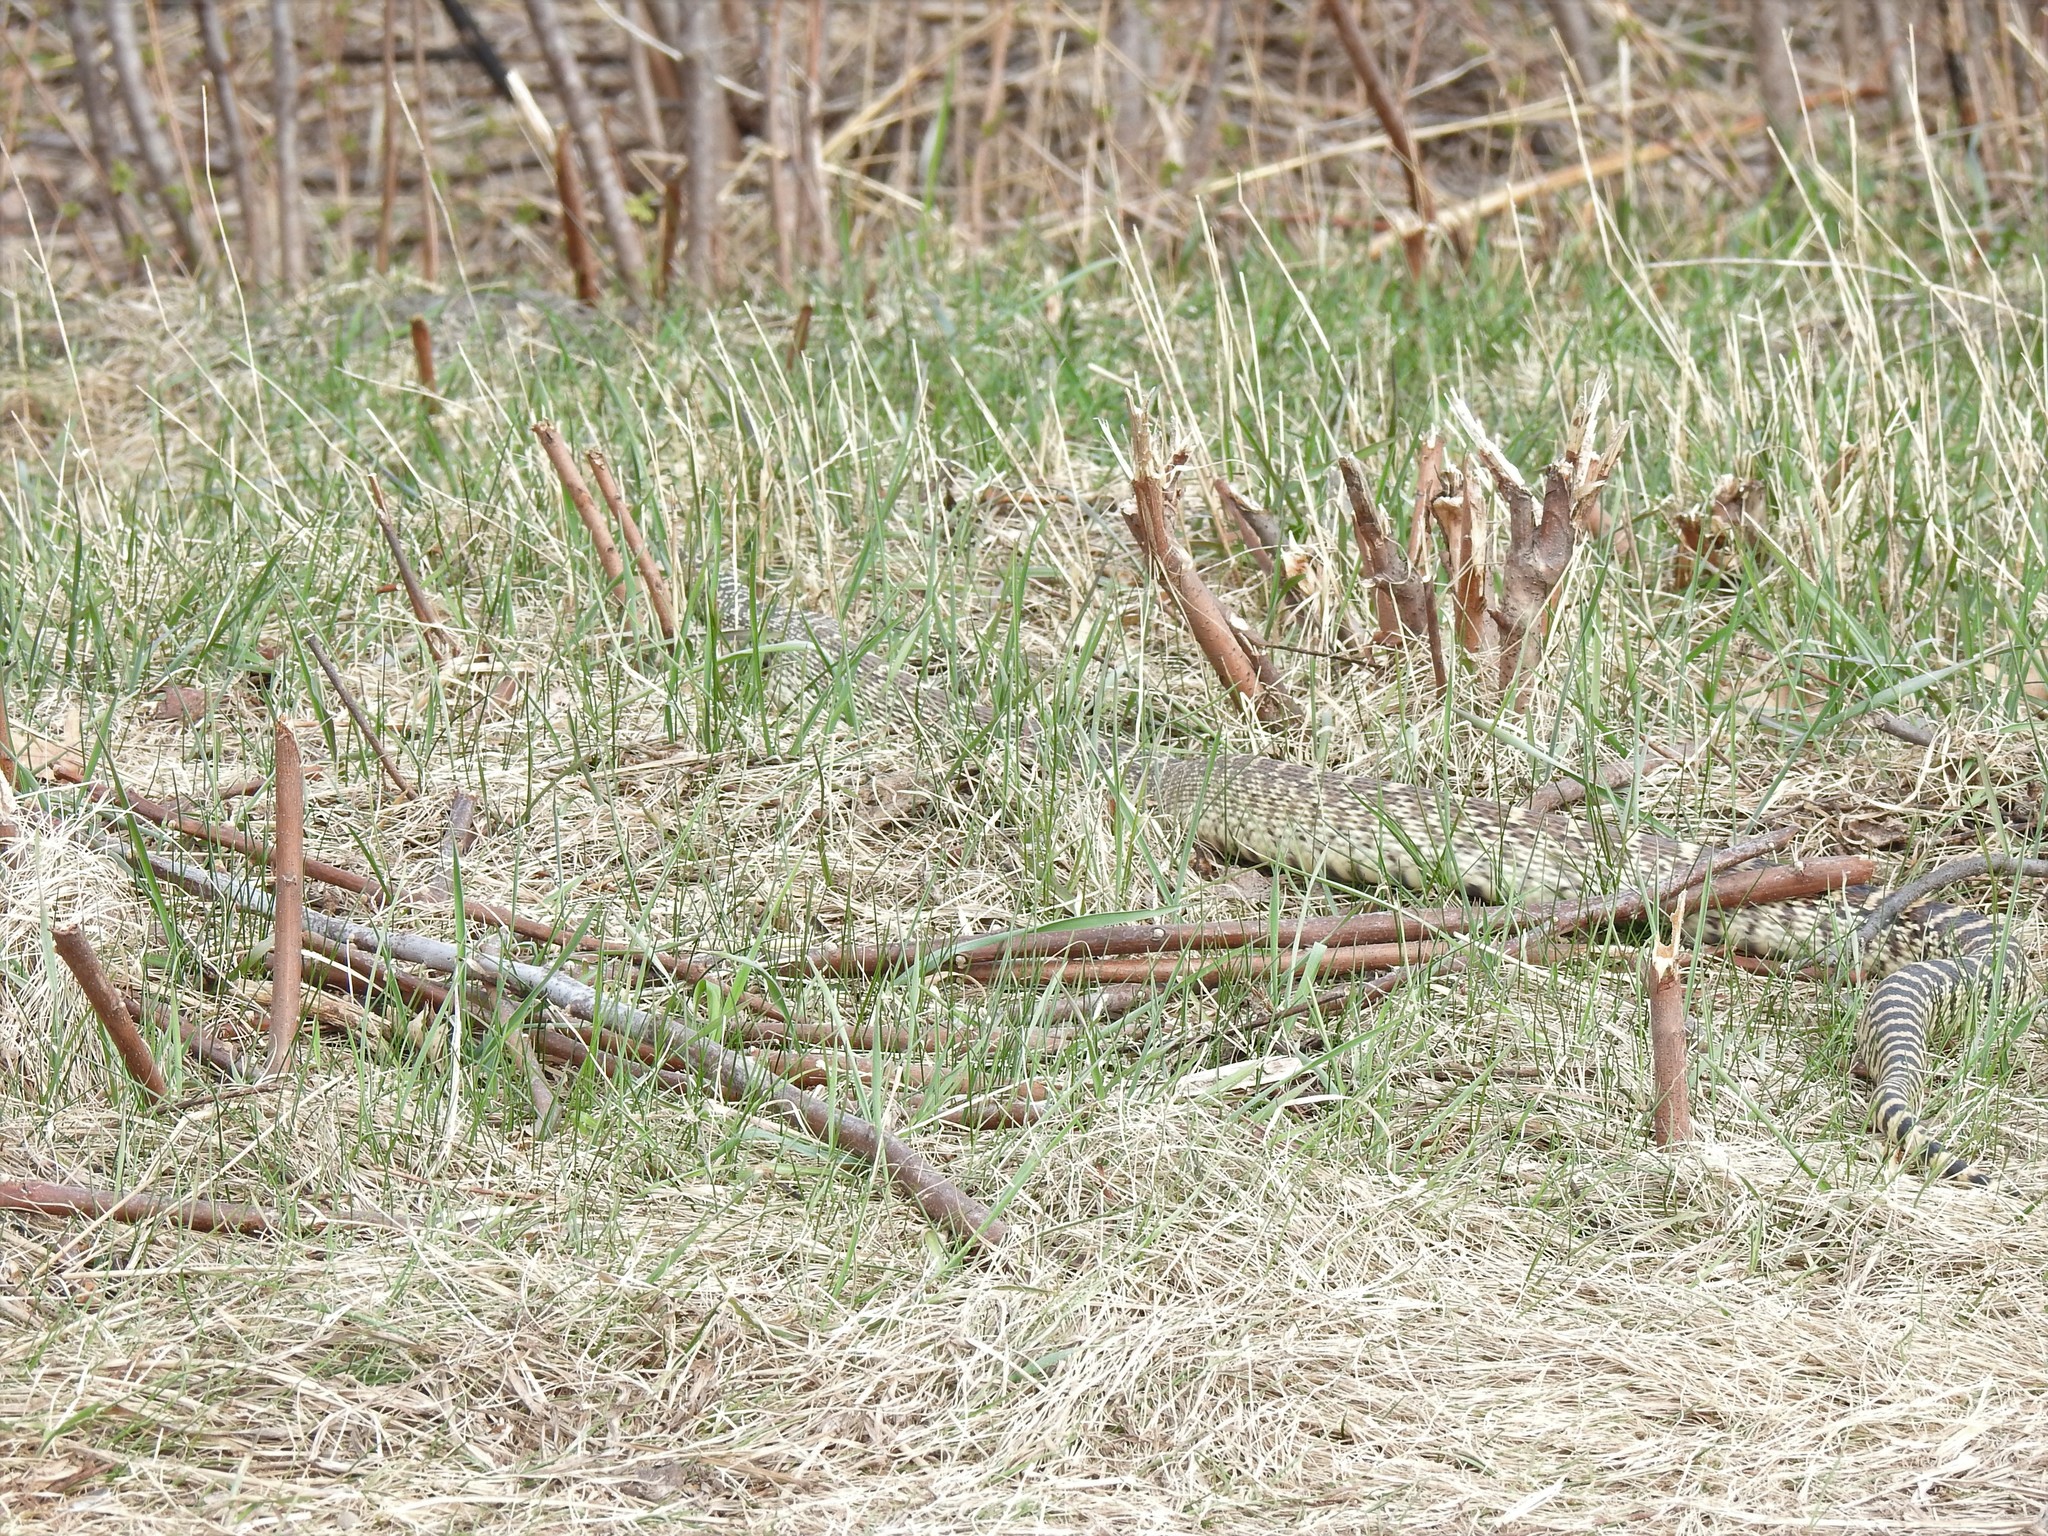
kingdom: Animalia
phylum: Chordata
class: Squamata
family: Colubridae
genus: Pituophis
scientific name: Pituophis catenifer
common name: Gopher snake
